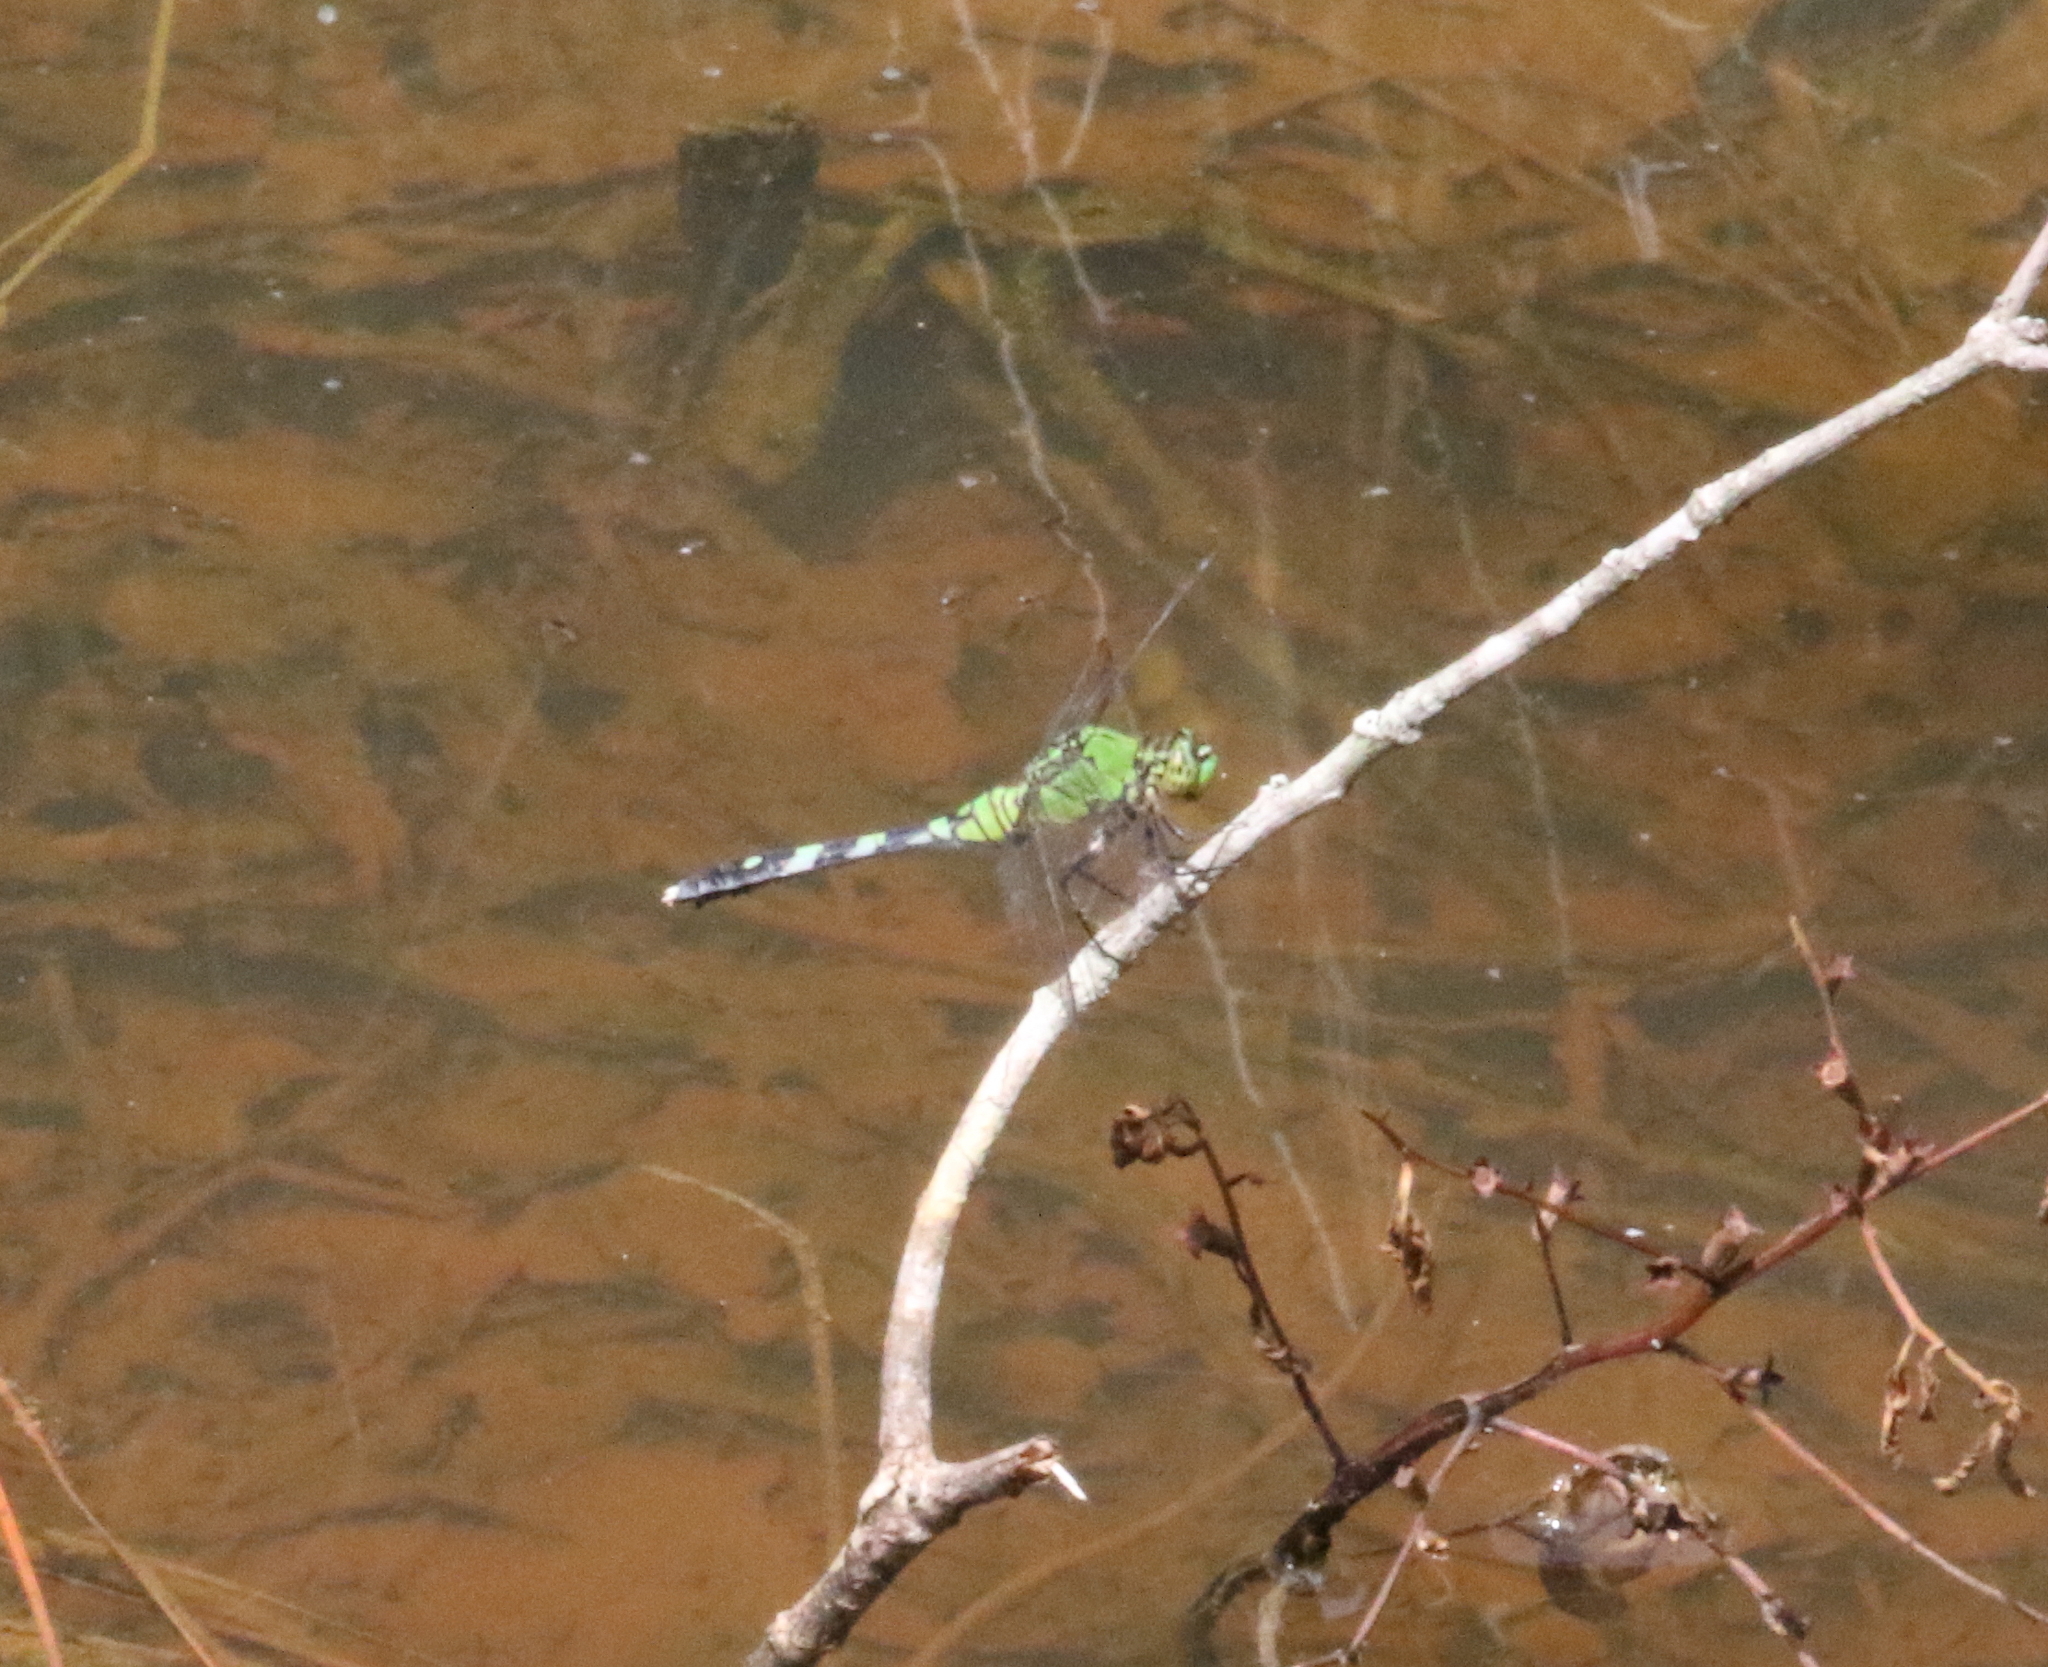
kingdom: Animalia
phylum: Arthropoda
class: Insecta
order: Odonata
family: Libellulidae
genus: Erythemis
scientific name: Erythemis simplicicollis
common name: Eastern pondhawk
